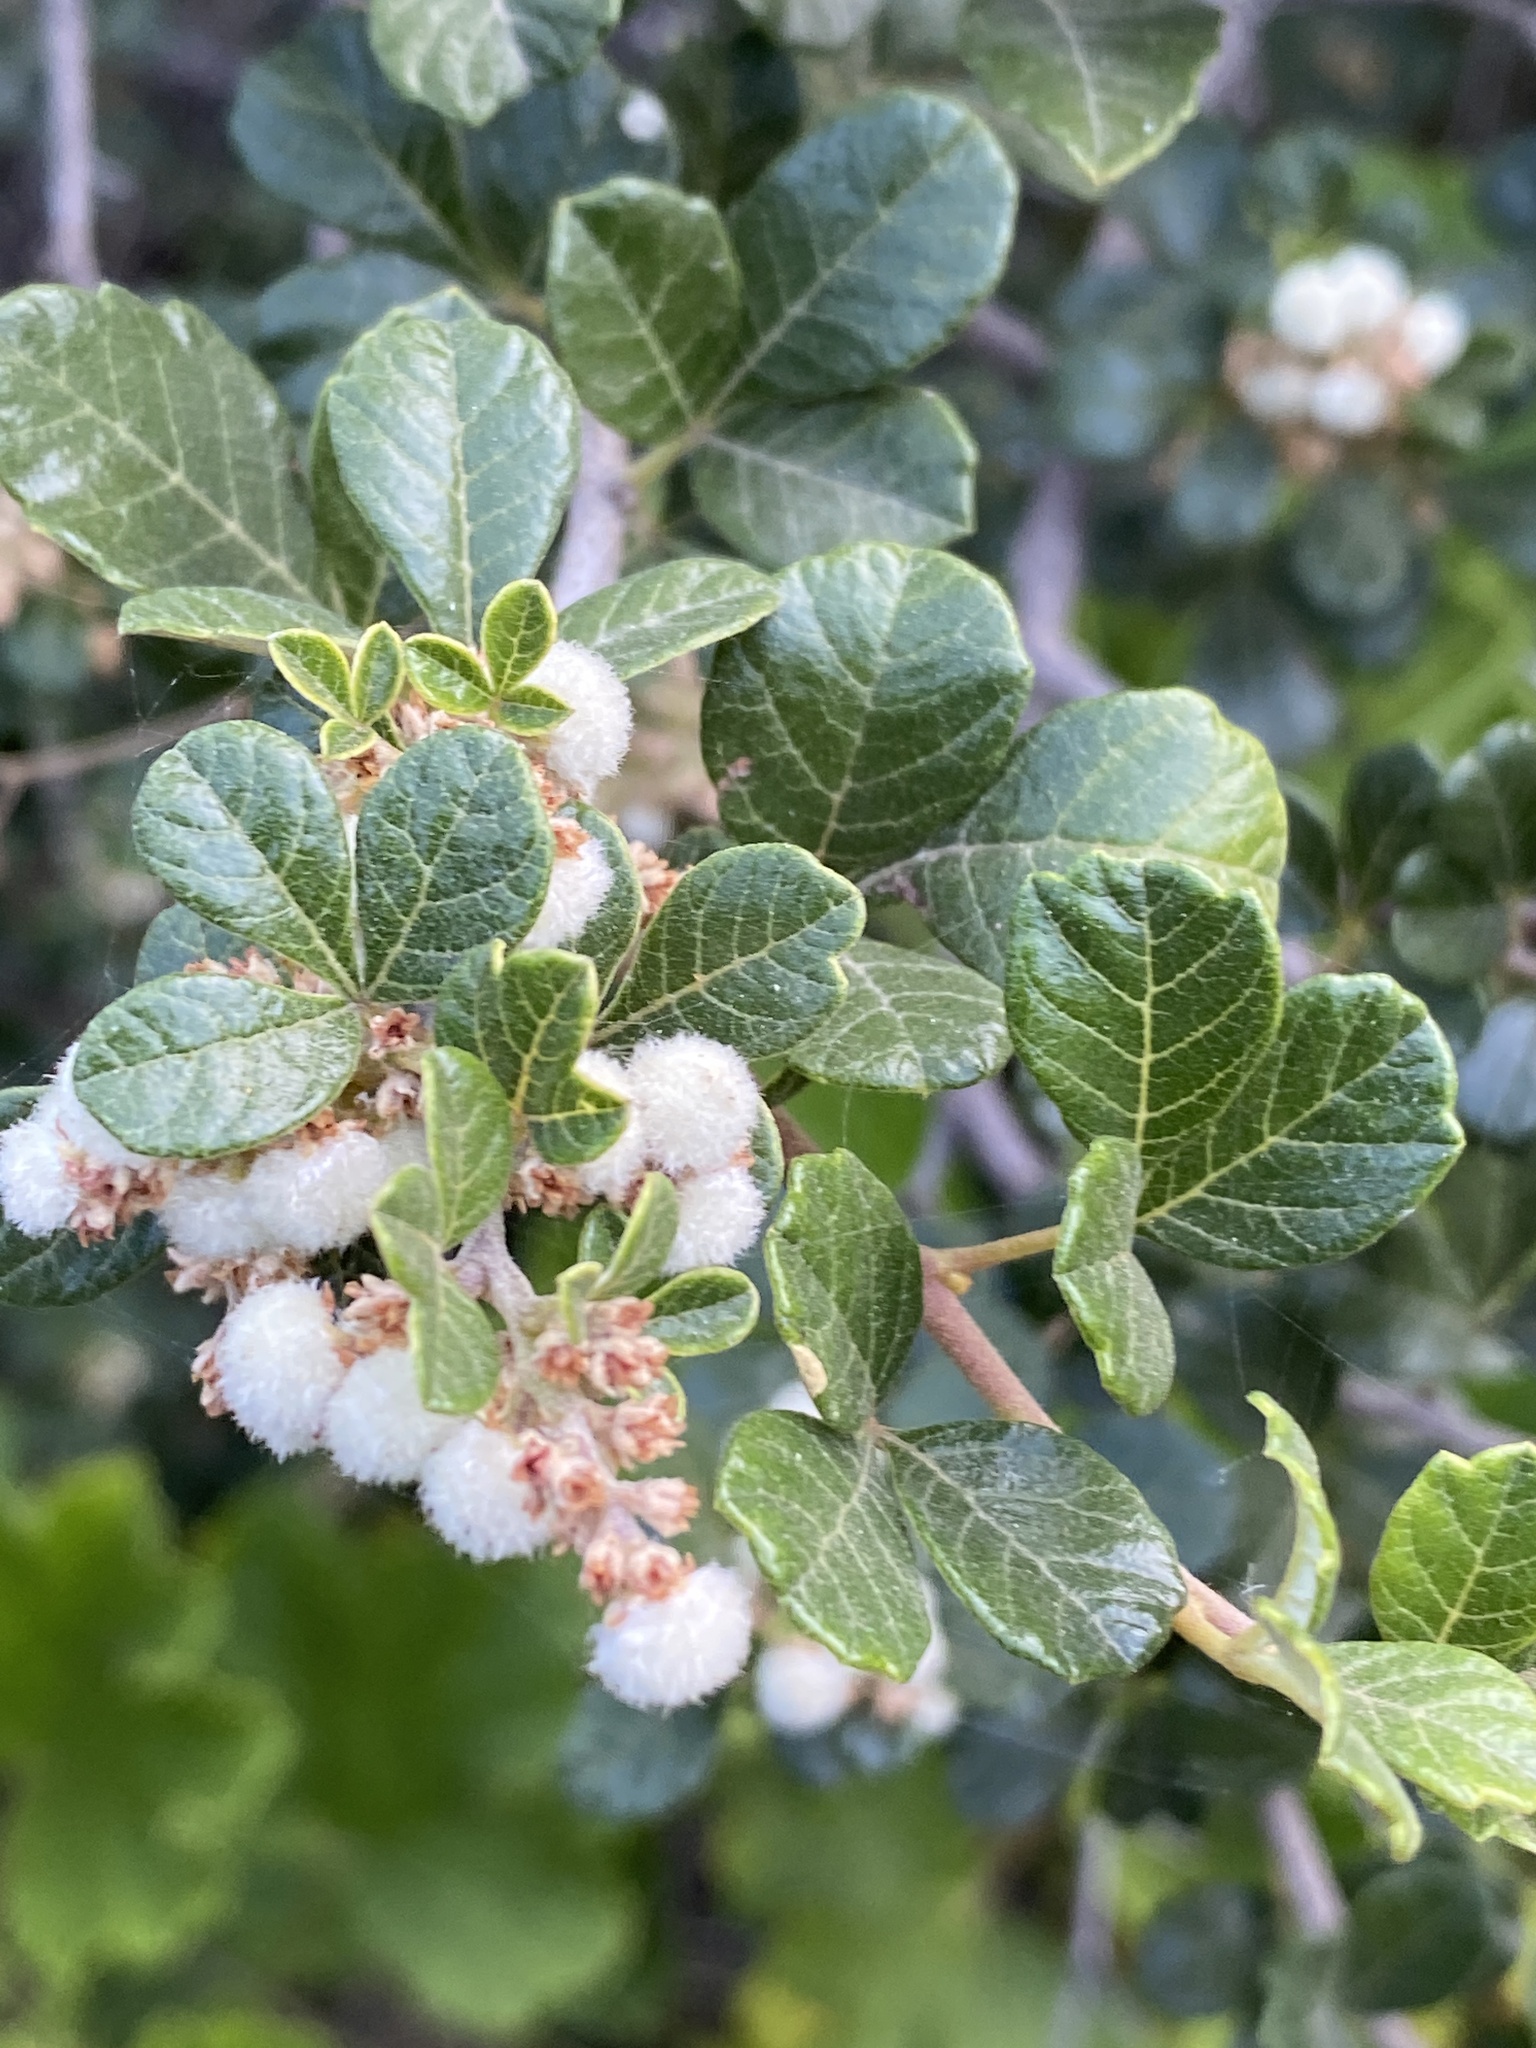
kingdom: Plantae
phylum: Tracheophyta
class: Magnoliopsida
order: Sapindales
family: Anacardiaceae
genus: Searsia
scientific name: Searsia incisa
